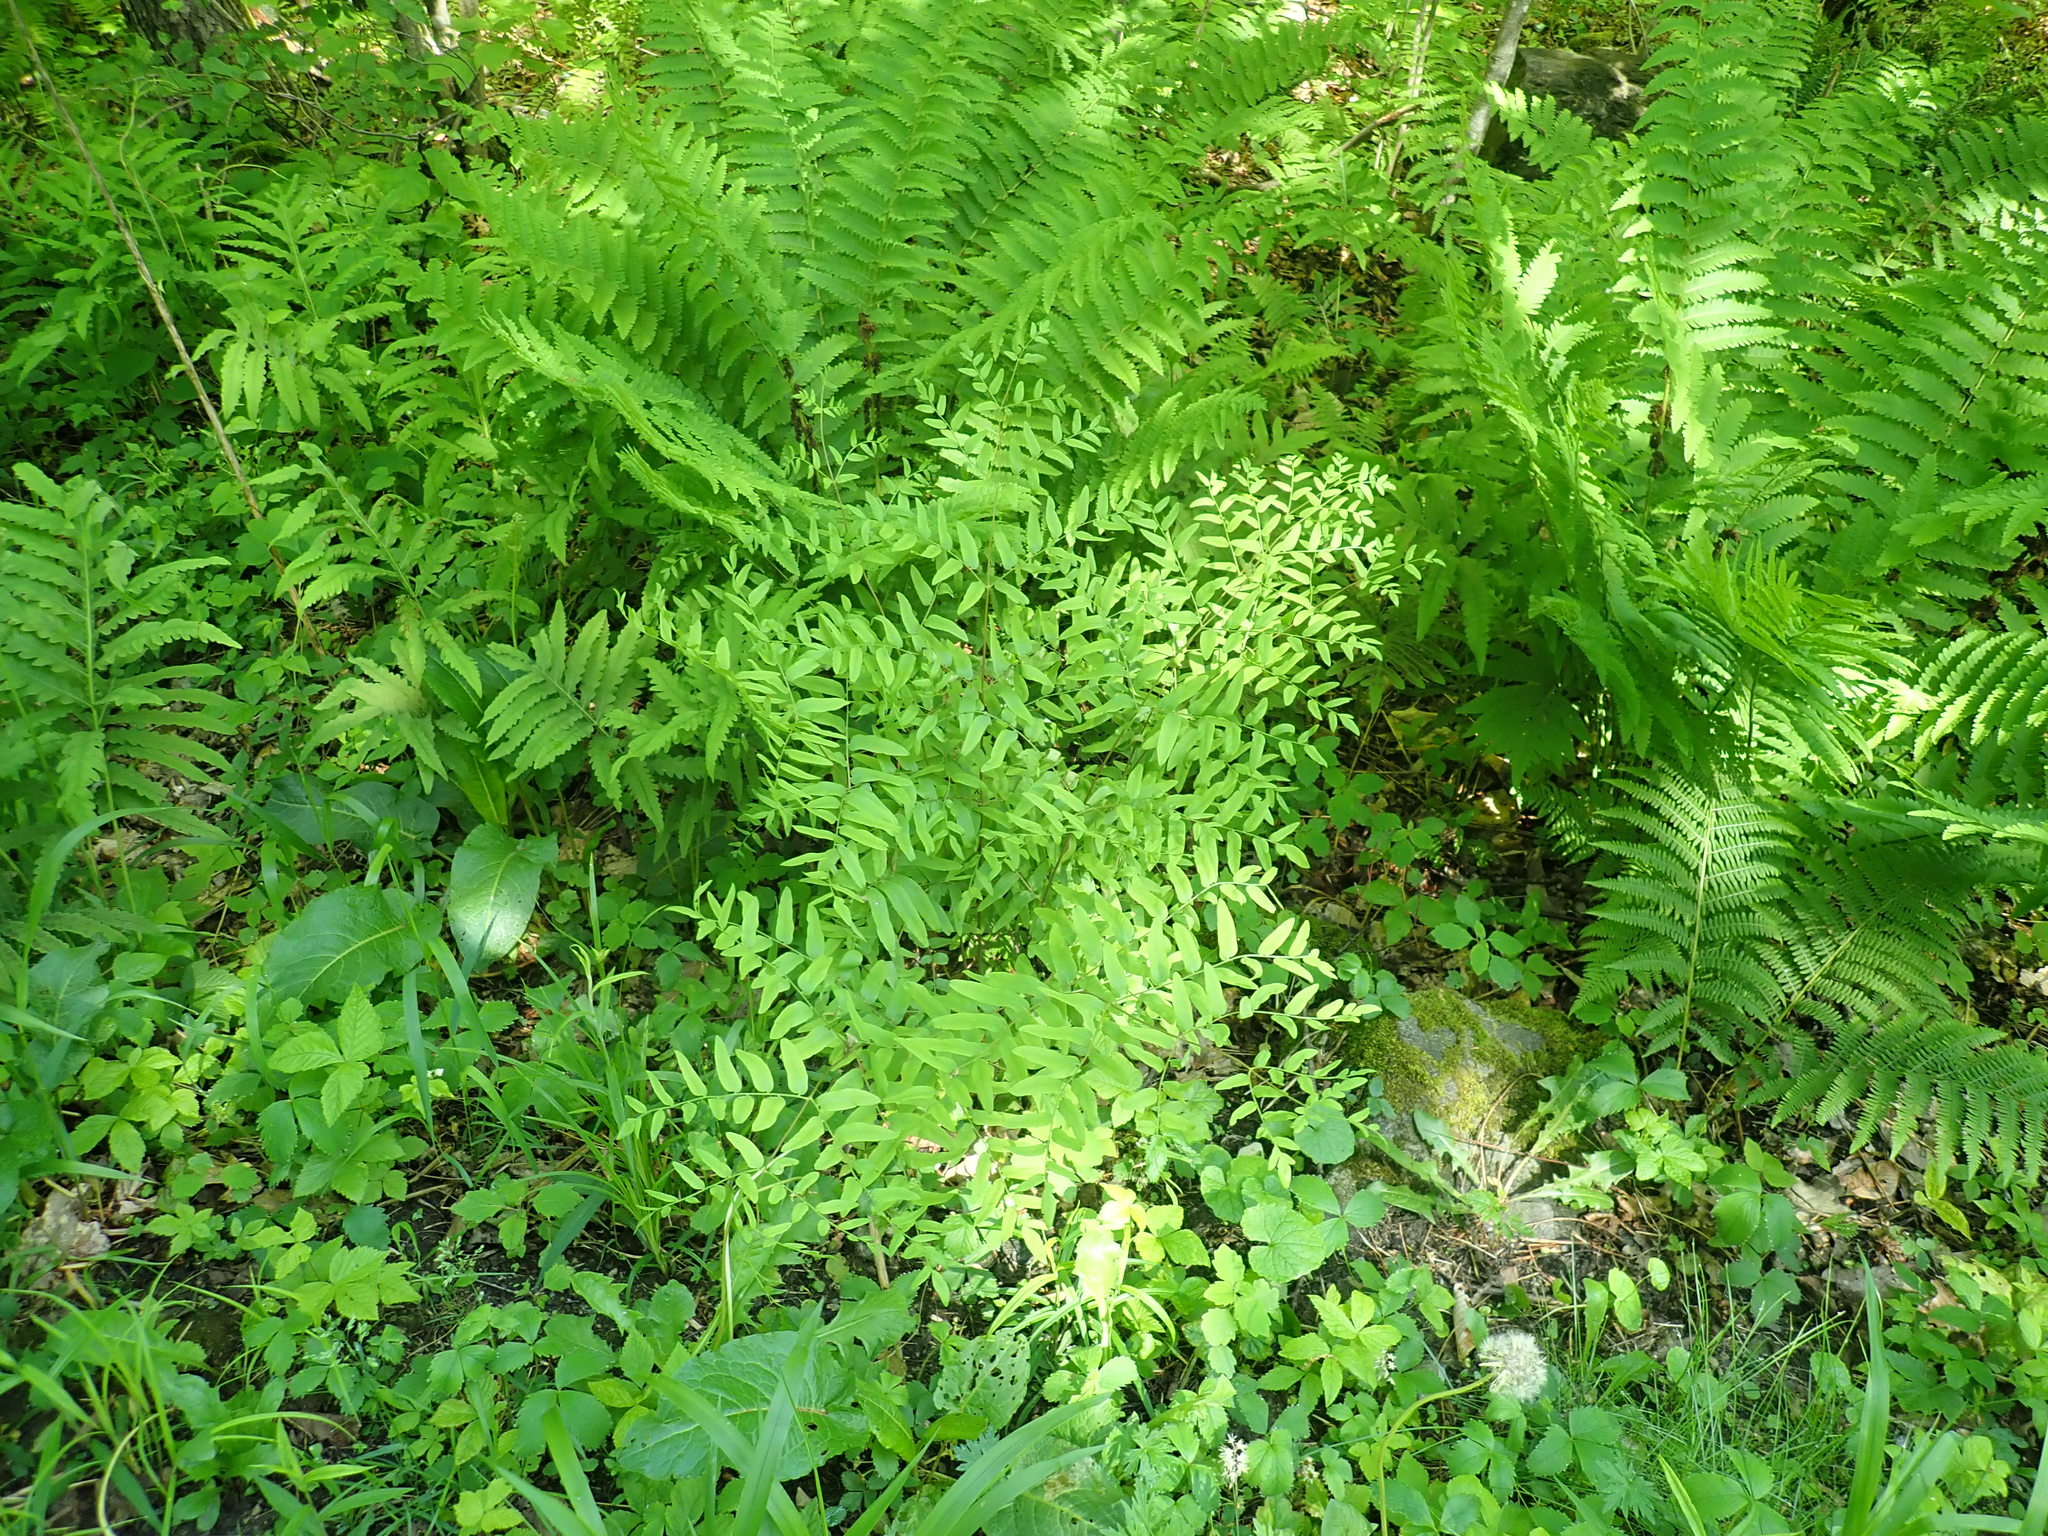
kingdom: Plantae
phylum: Tracheophyta
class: Polypodiopsida
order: Osmundales
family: Osmundaceae
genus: Osmunda
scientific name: Osmunda spectabilis
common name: American royal fern
